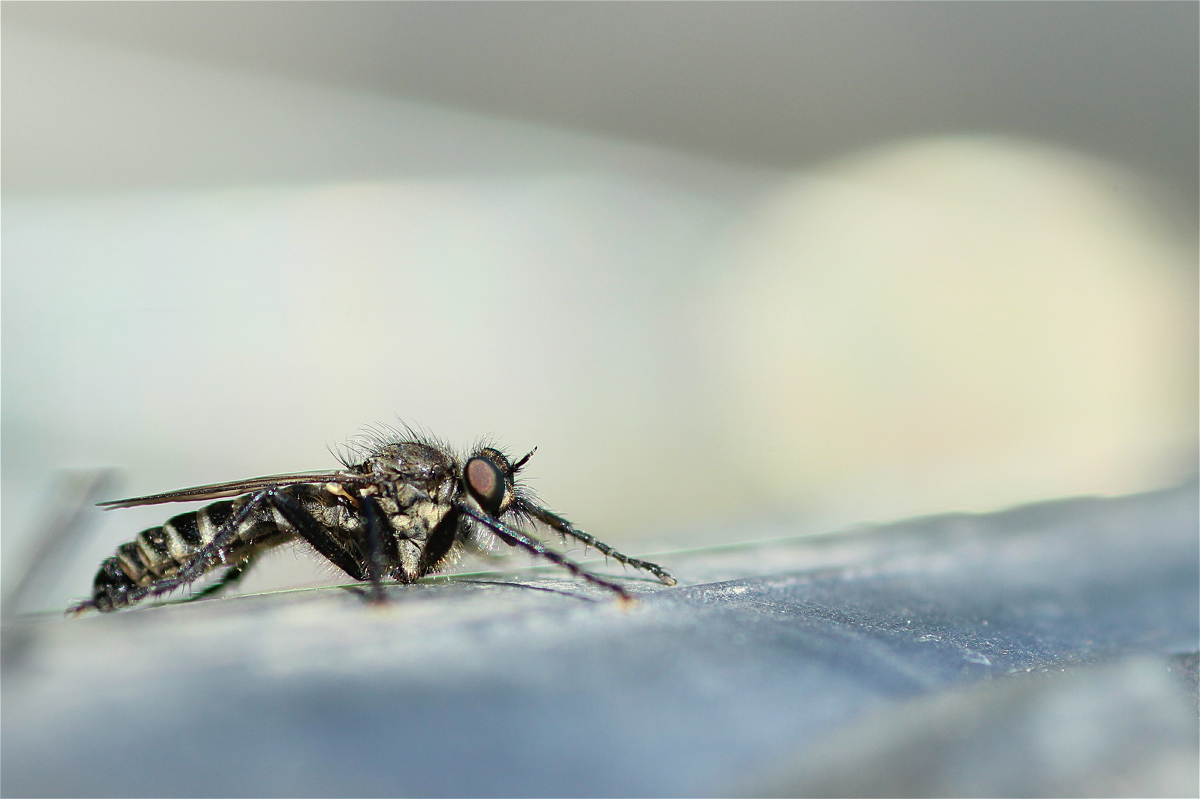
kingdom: Animalia
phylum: Arthropoda
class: Insecta
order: Diptera
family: Asilidae
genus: Lasiopogon
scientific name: Lasiopogon cinctus
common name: Spring heath robberfly
